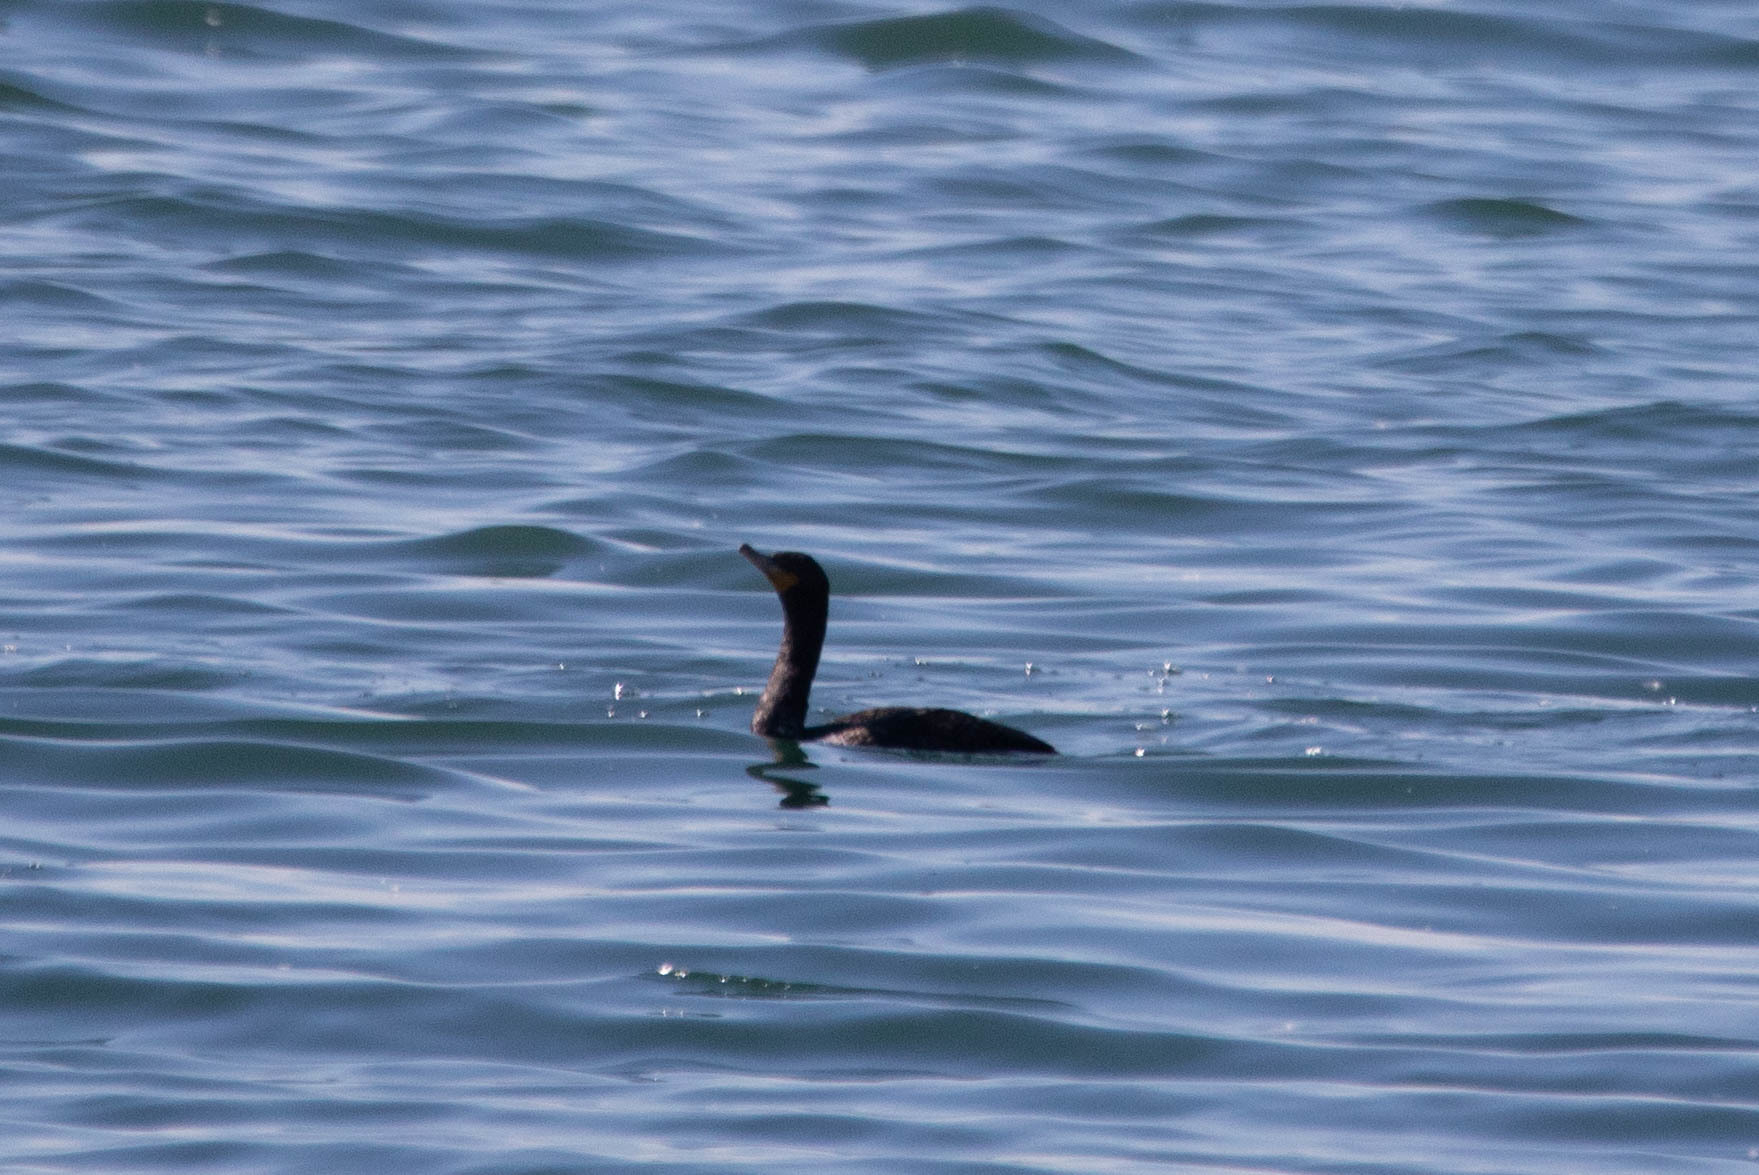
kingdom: Animalia
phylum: Chordata
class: Aves
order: Suliformes
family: Phalacrocoracidae
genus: Phalacrocorax
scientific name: Phalacrocorax auritus
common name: Double-crested cormorant
